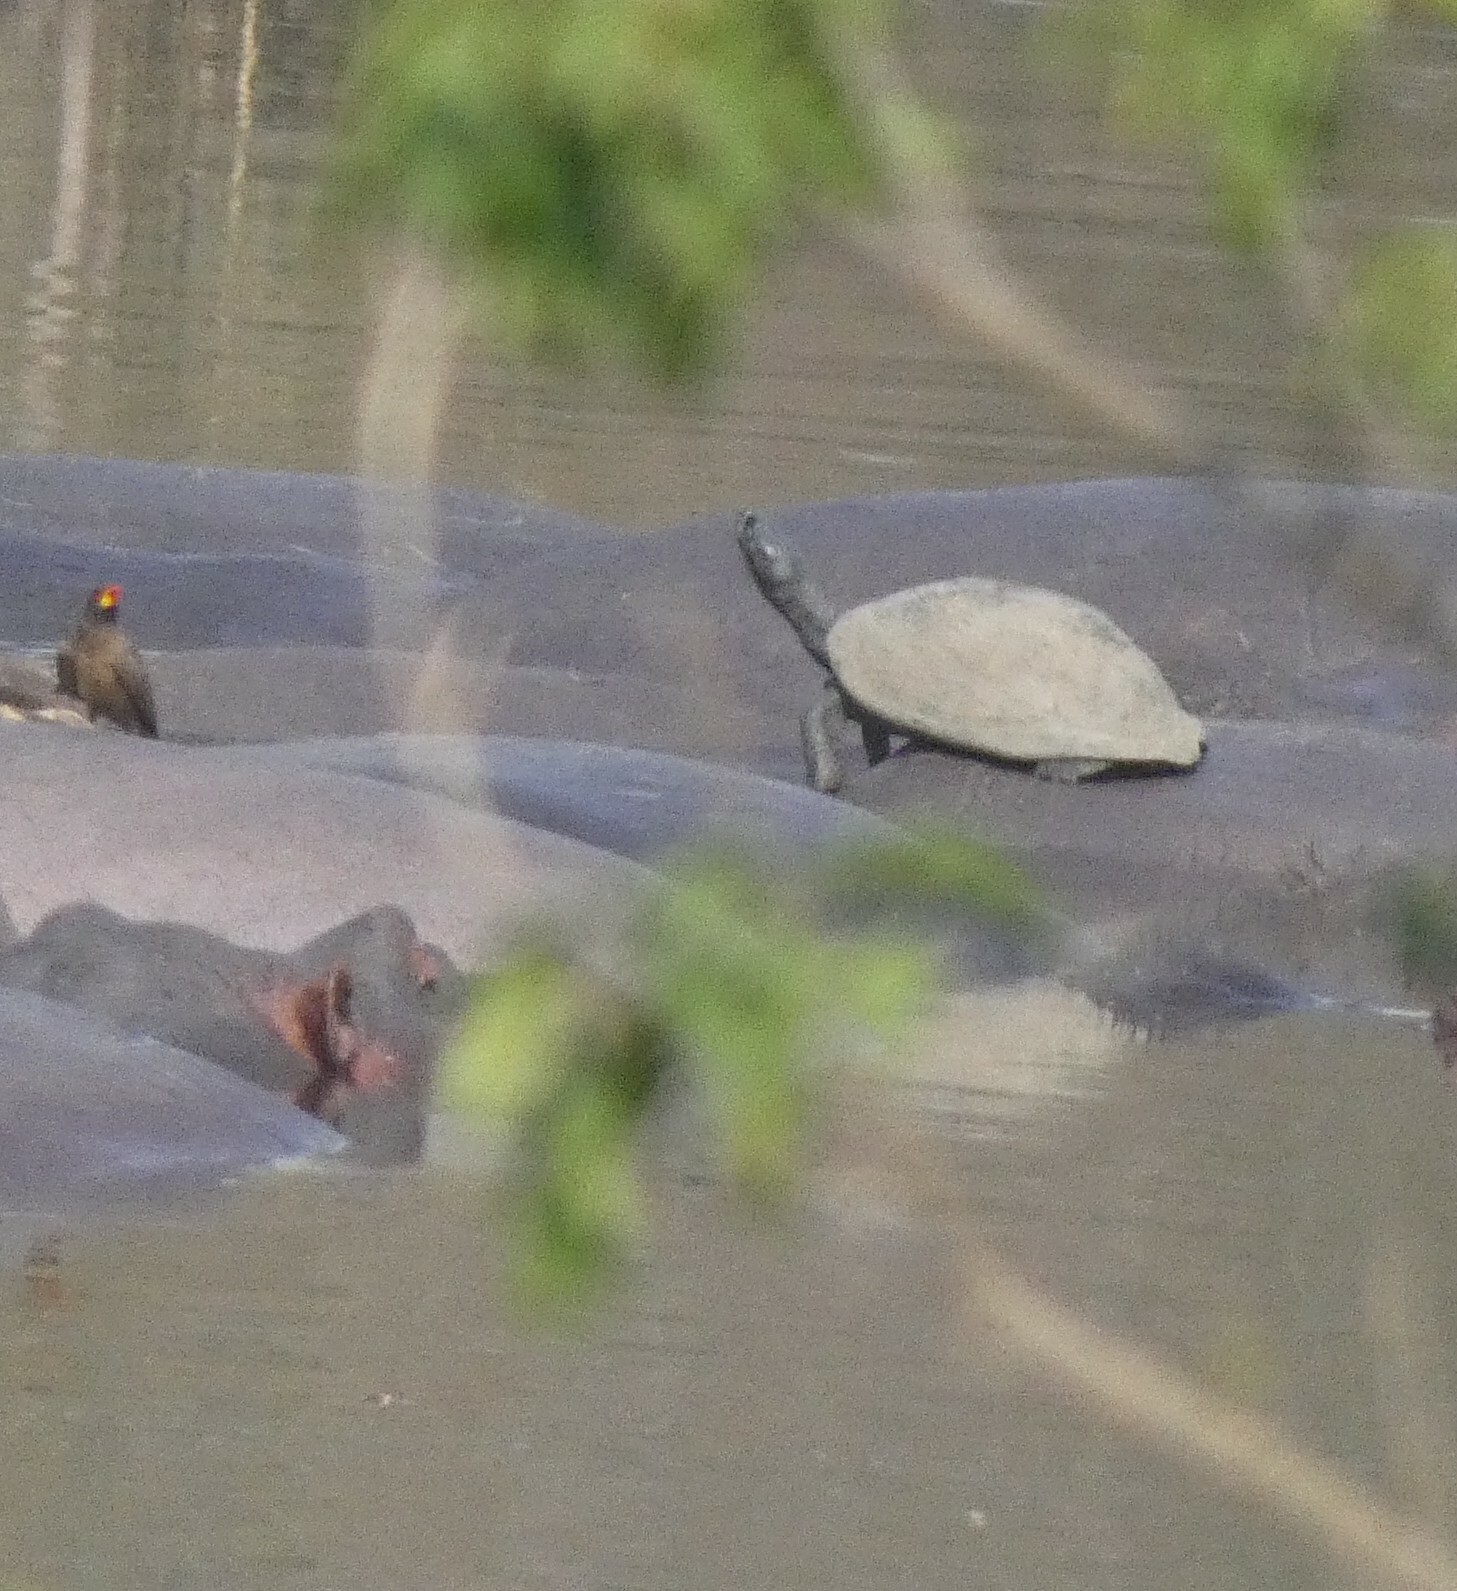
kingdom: Animalia
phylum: Chordata
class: Testudines
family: Pelomedusidae
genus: Pelusios
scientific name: Pelusios sinuatus
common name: Serrated hinged terrapin
